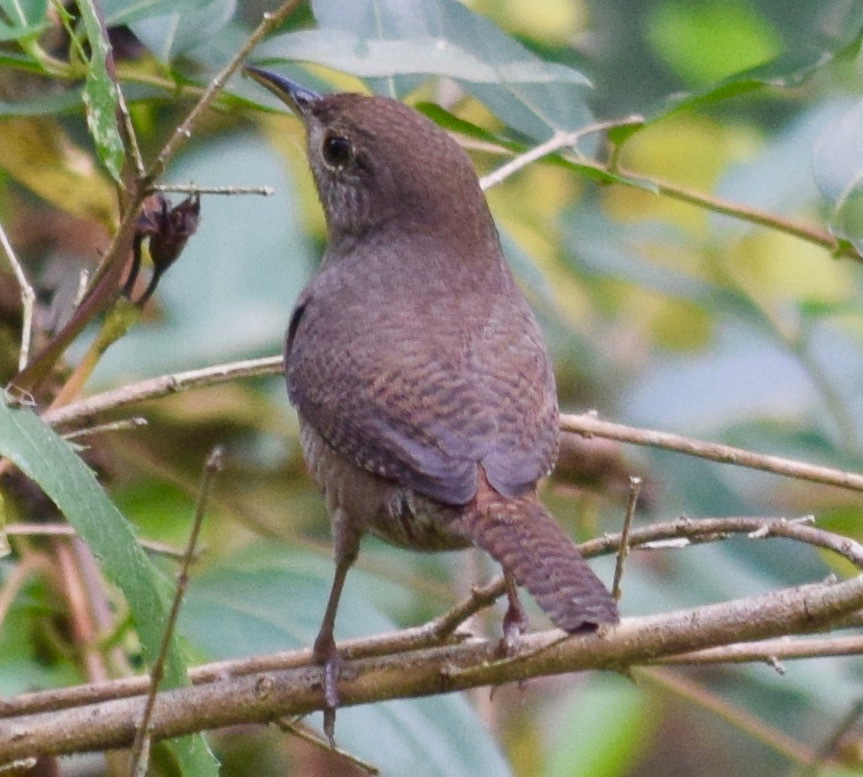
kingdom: Animalia
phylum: Chordata
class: Aves
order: Passeriformes
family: Troglodytidae
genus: Troglodytes
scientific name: Troglodytes aedon
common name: House wren
